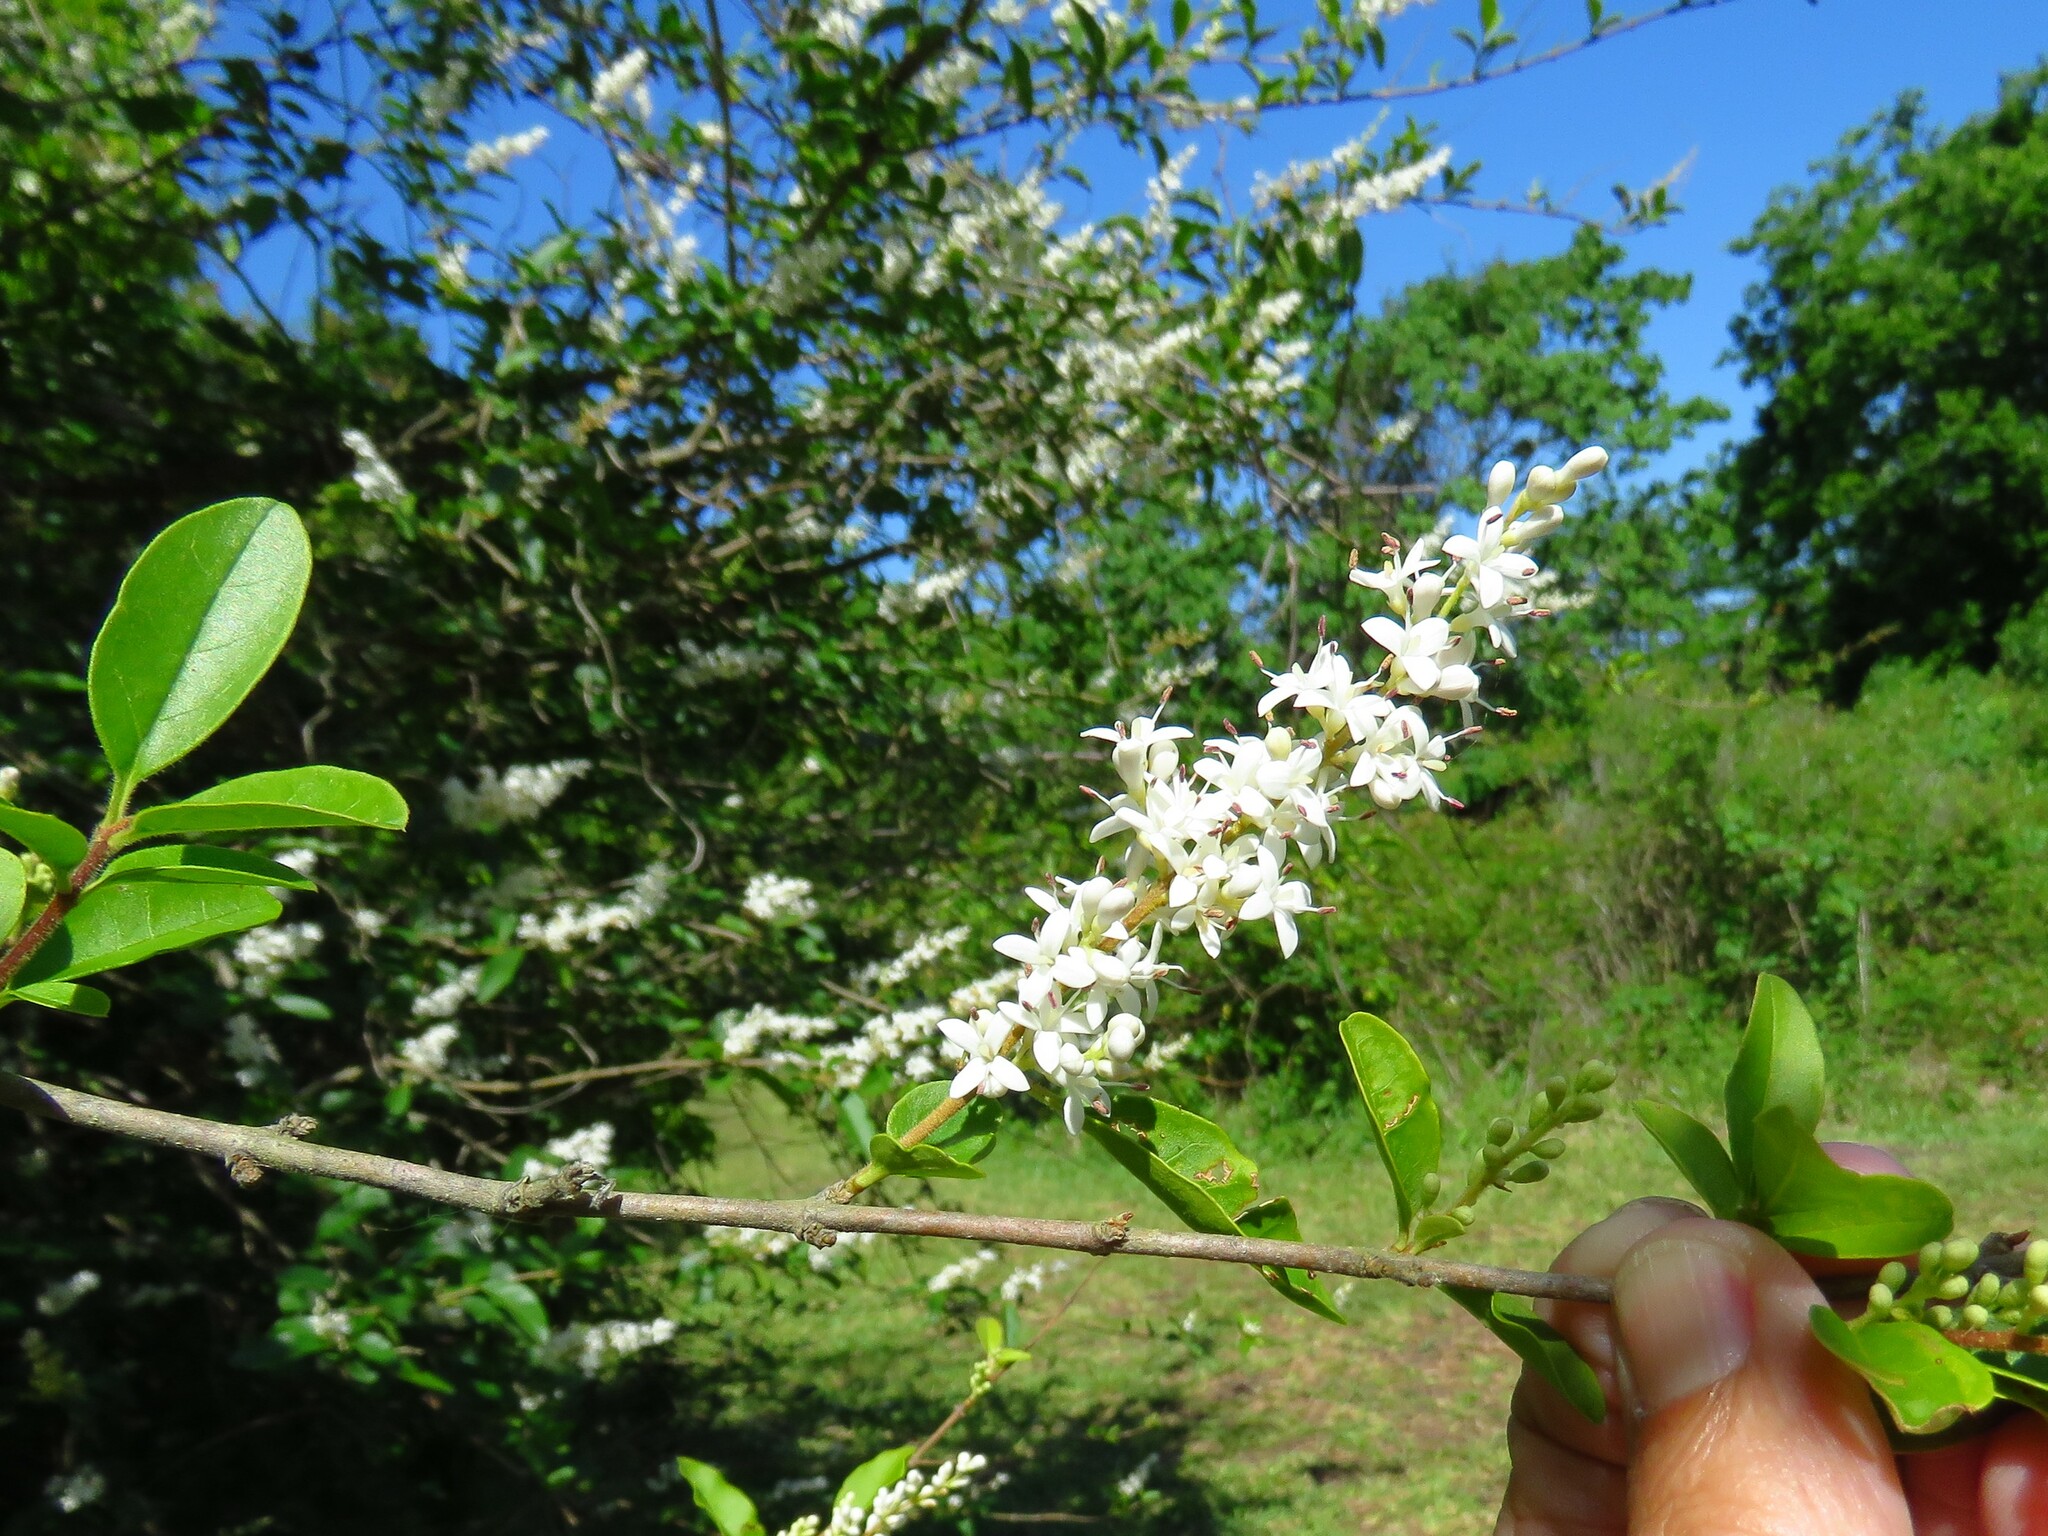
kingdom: Plantae
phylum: Tracheophyta
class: Magnoliopsida
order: Lamiales
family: Oleaceae
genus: Ligustrum
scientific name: Ligustrum sinense
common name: Chinese privet
